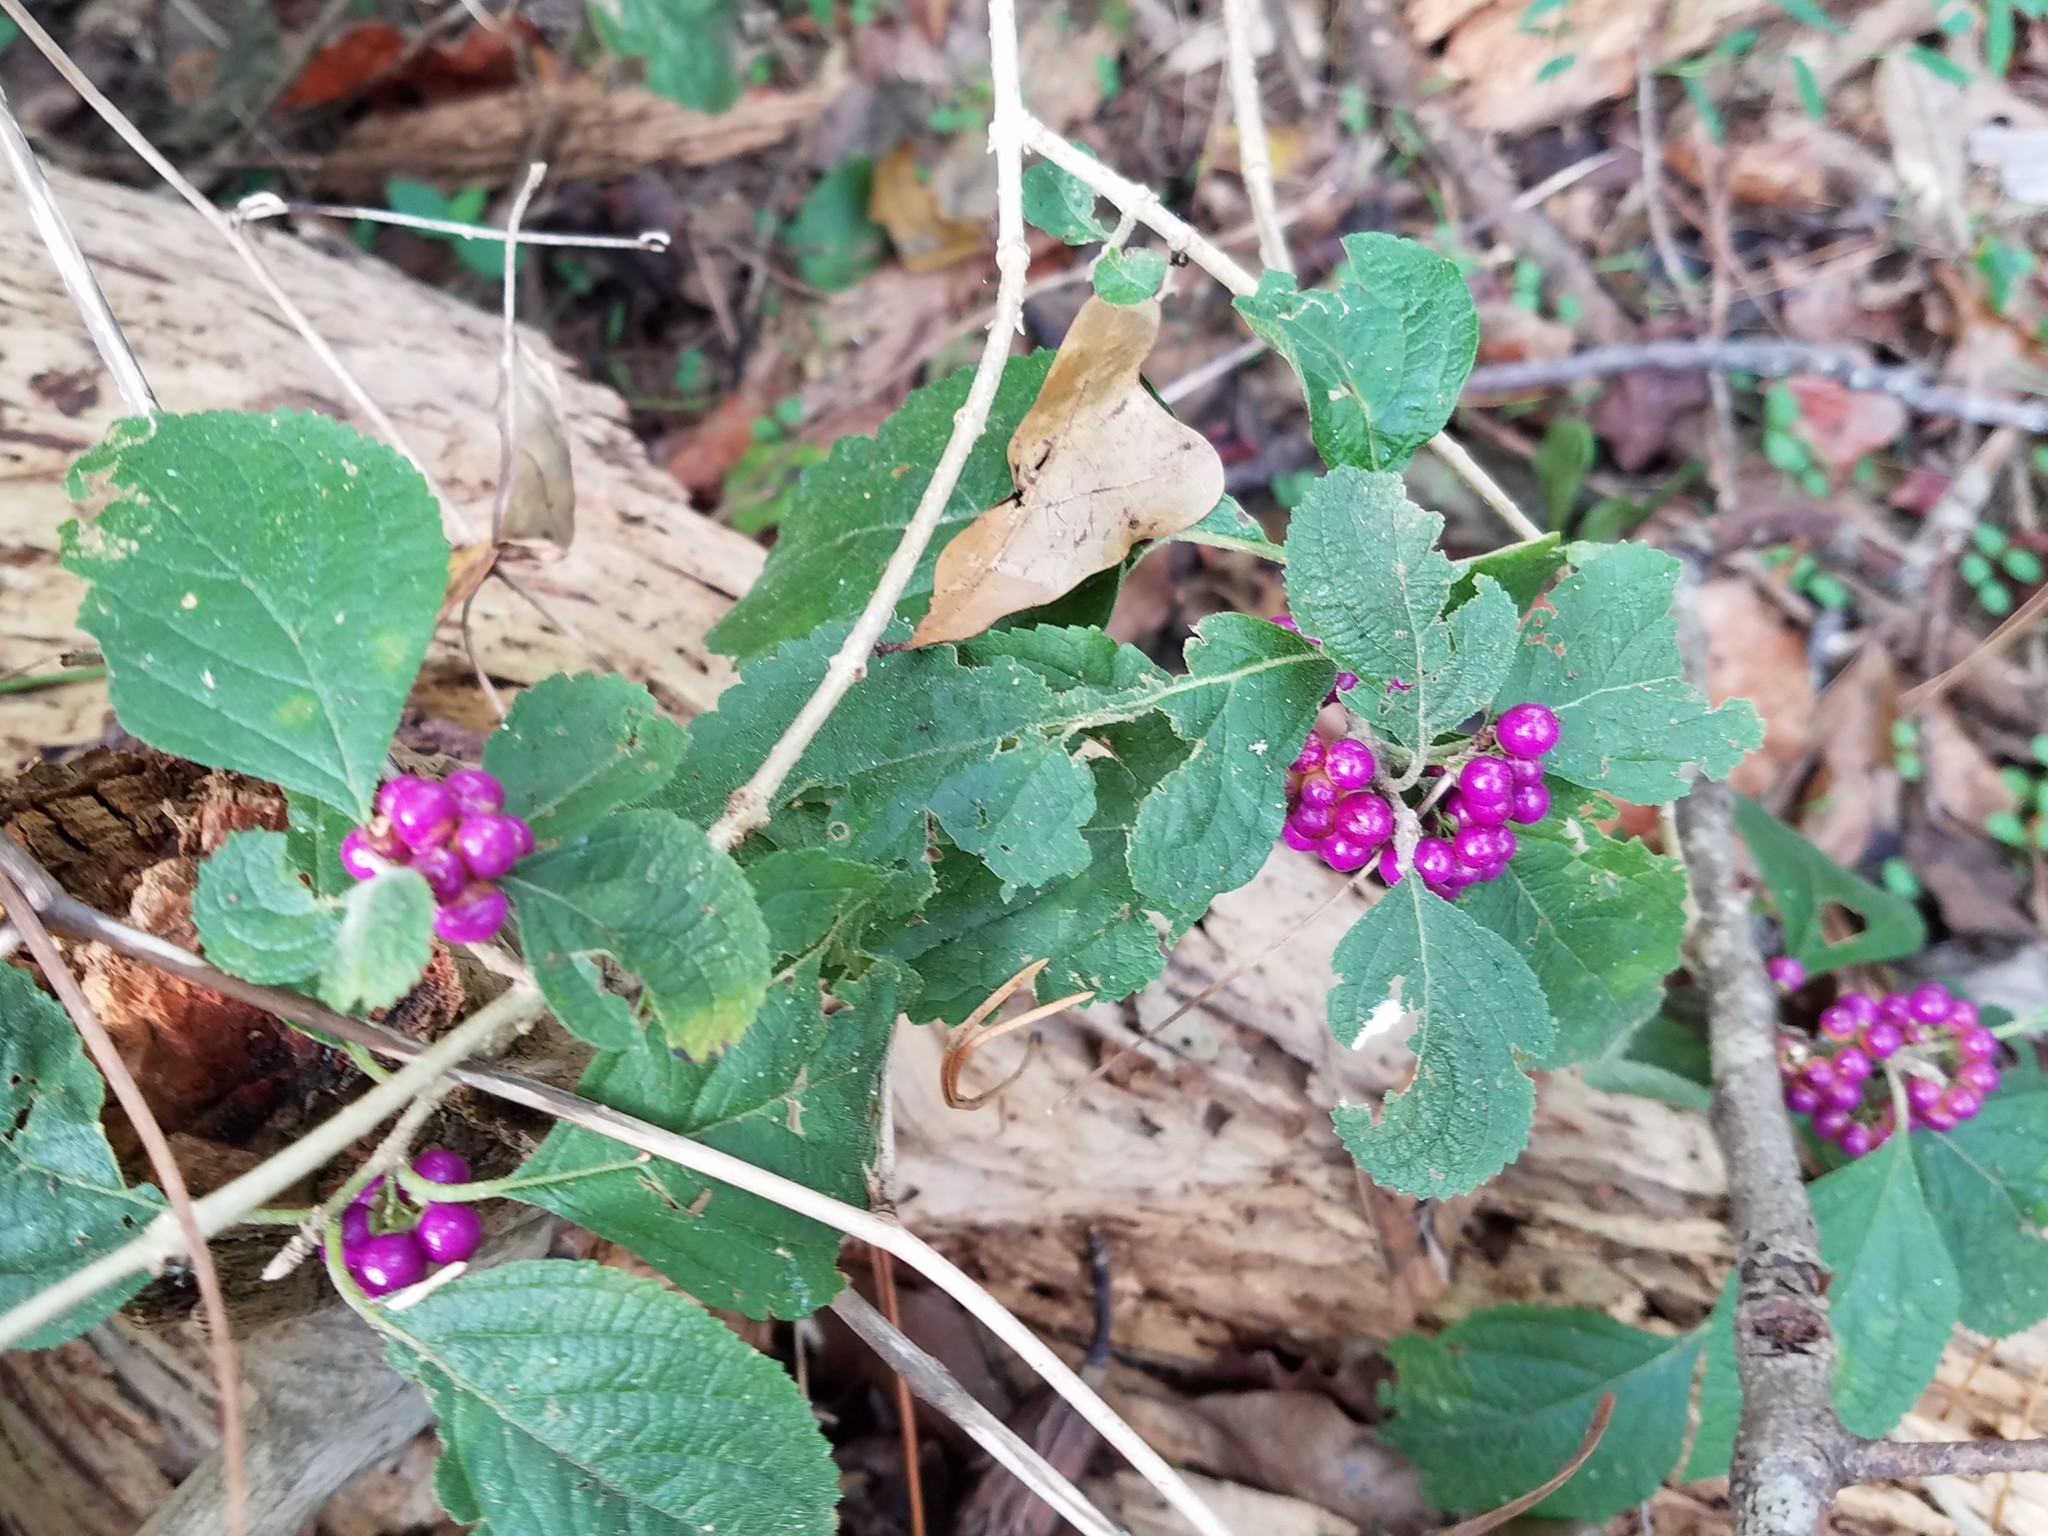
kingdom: Plantae
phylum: Tracheophyta
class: Magnoliopsida
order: Lamiales
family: Lamiaceae
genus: Callicarpa
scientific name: Callicarpa americana
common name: American beautyberry
